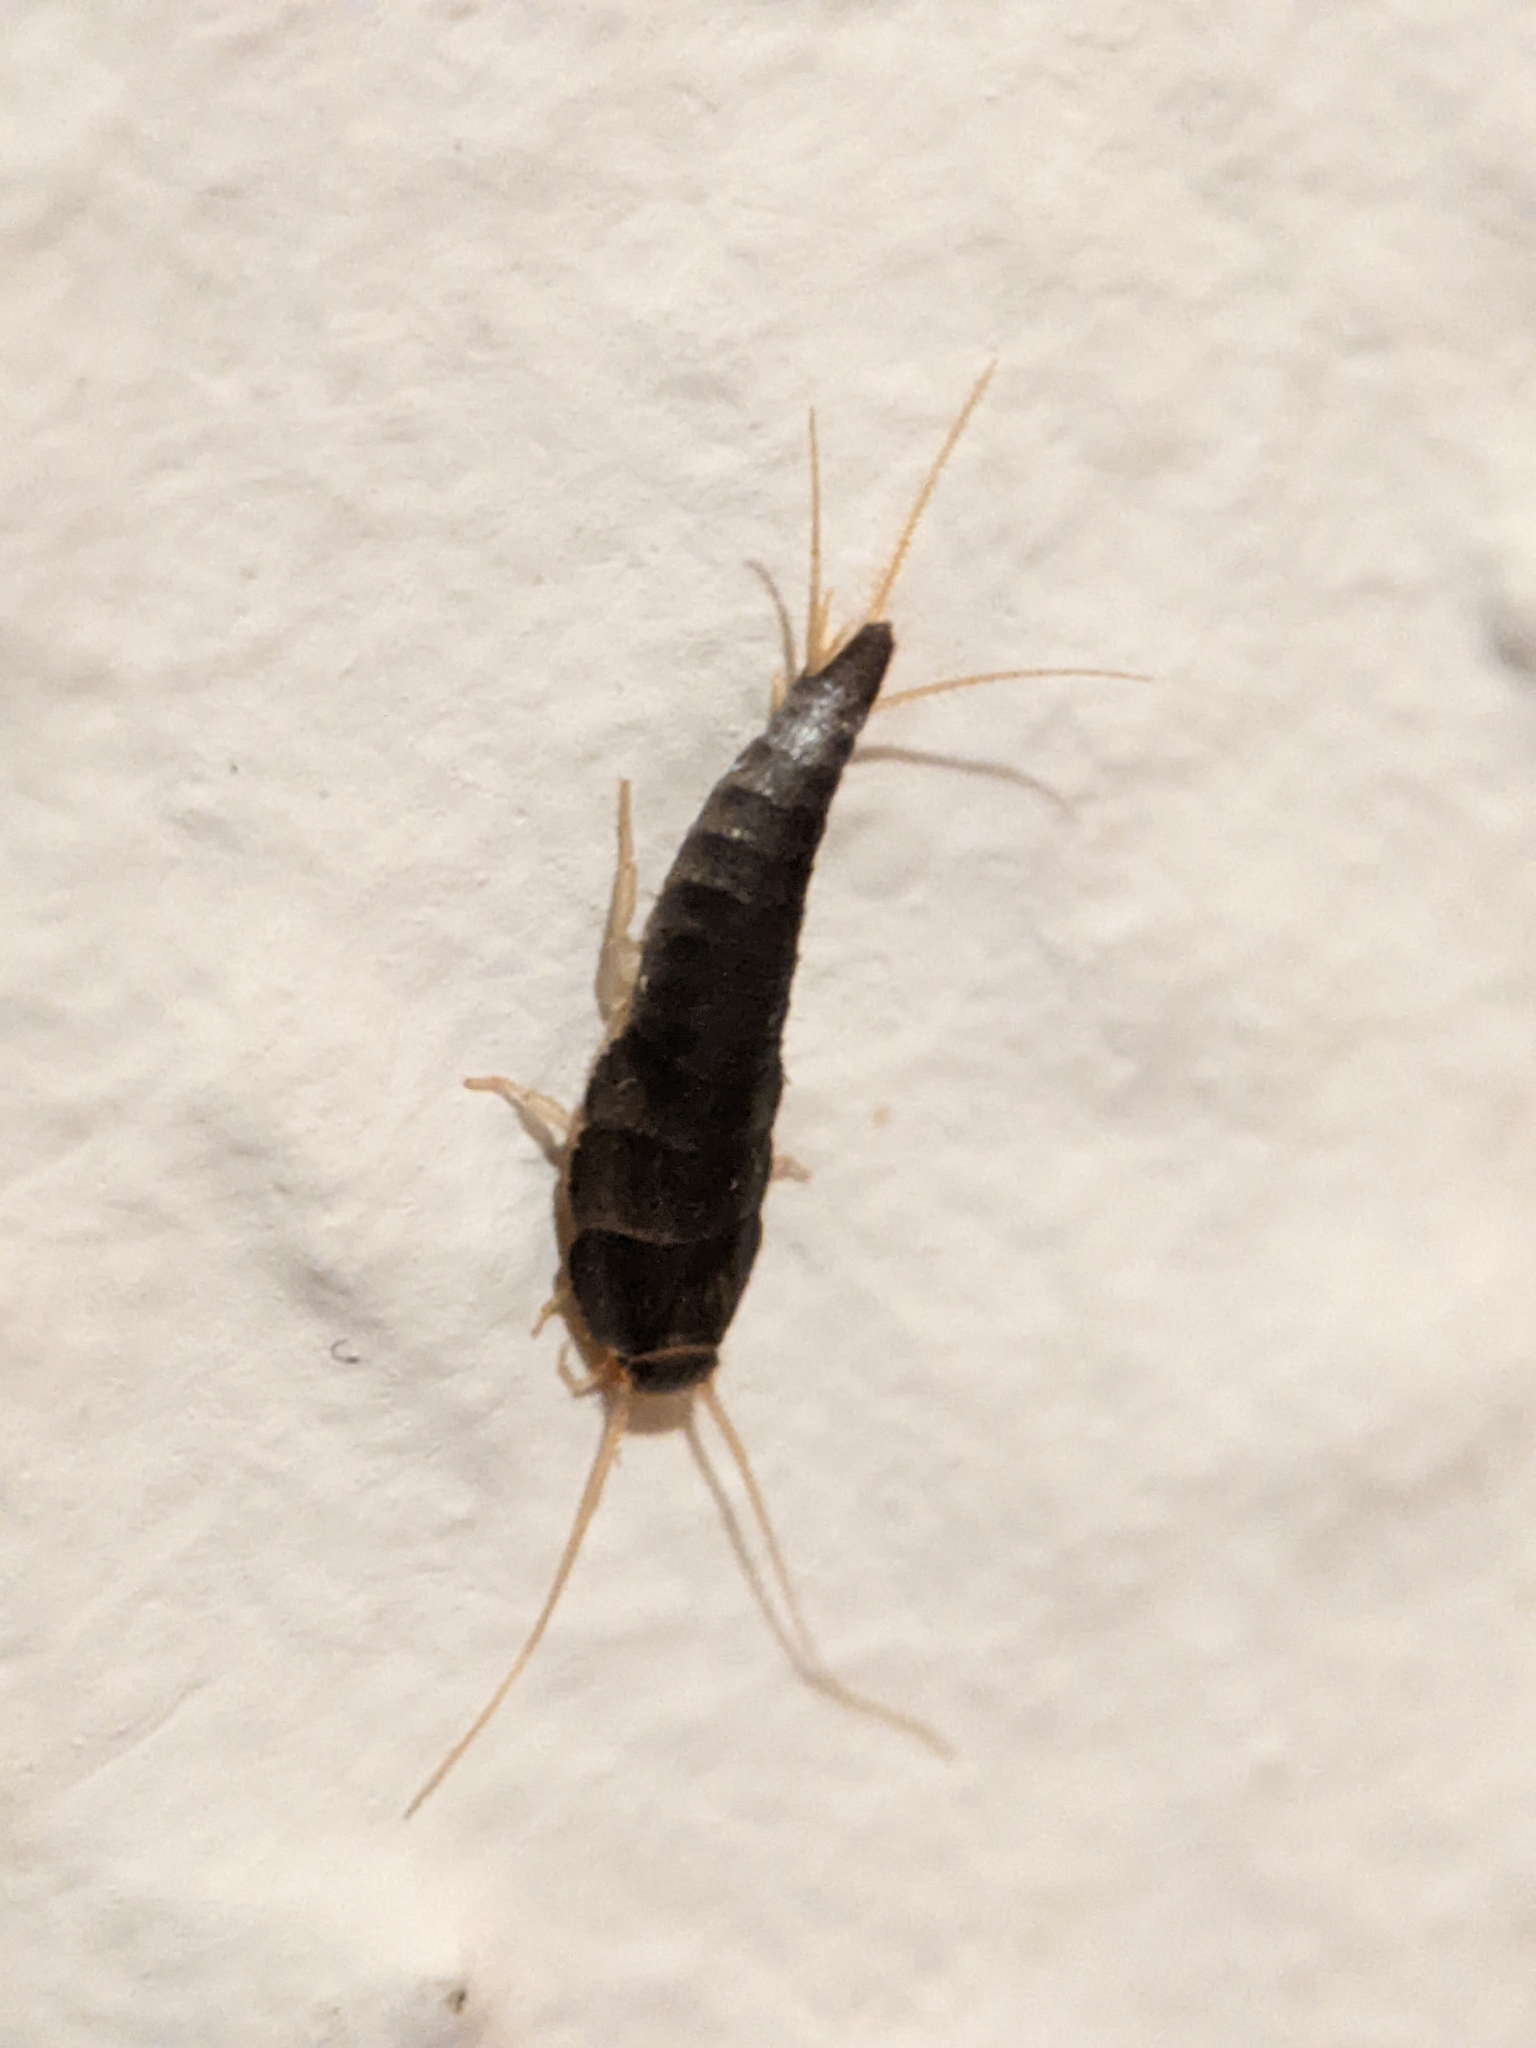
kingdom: Animalia
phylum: Arthropoda
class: Insecta
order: Zygentoma
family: Lepismatidae
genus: Lepisma
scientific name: Lepisma saccharinum
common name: Silverfish
